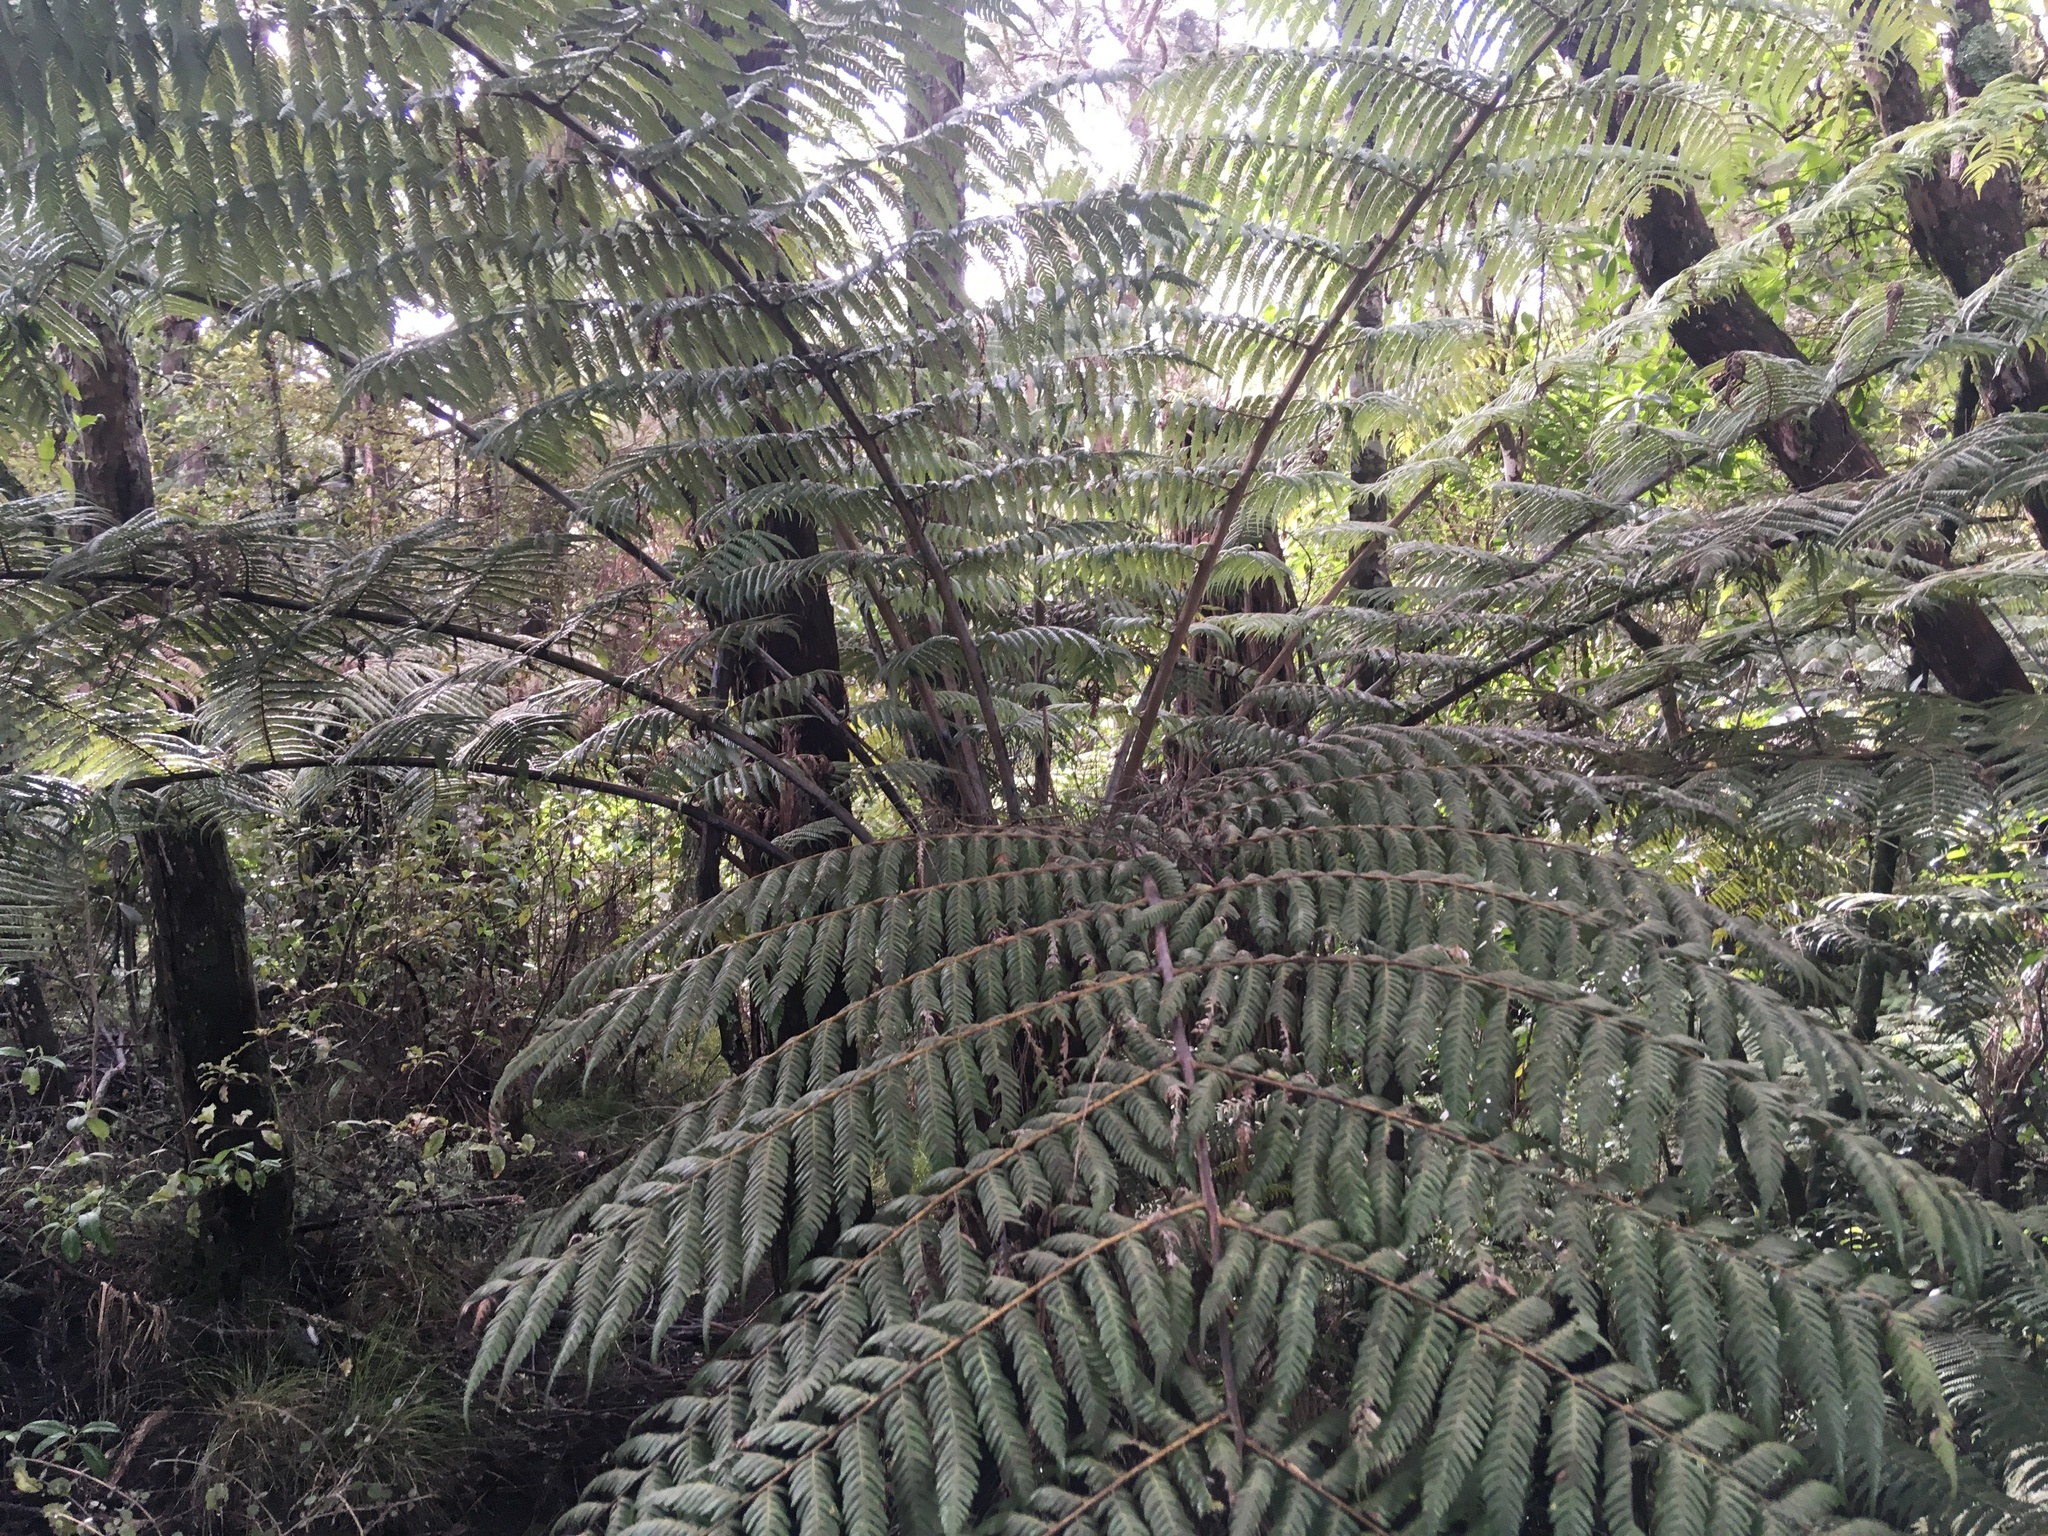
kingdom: Plantae
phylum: Tracheophyta
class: Polypodiopsida
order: Cyatheales
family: Cyatheaceae
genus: Alsophila
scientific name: Alsophila dealbata
